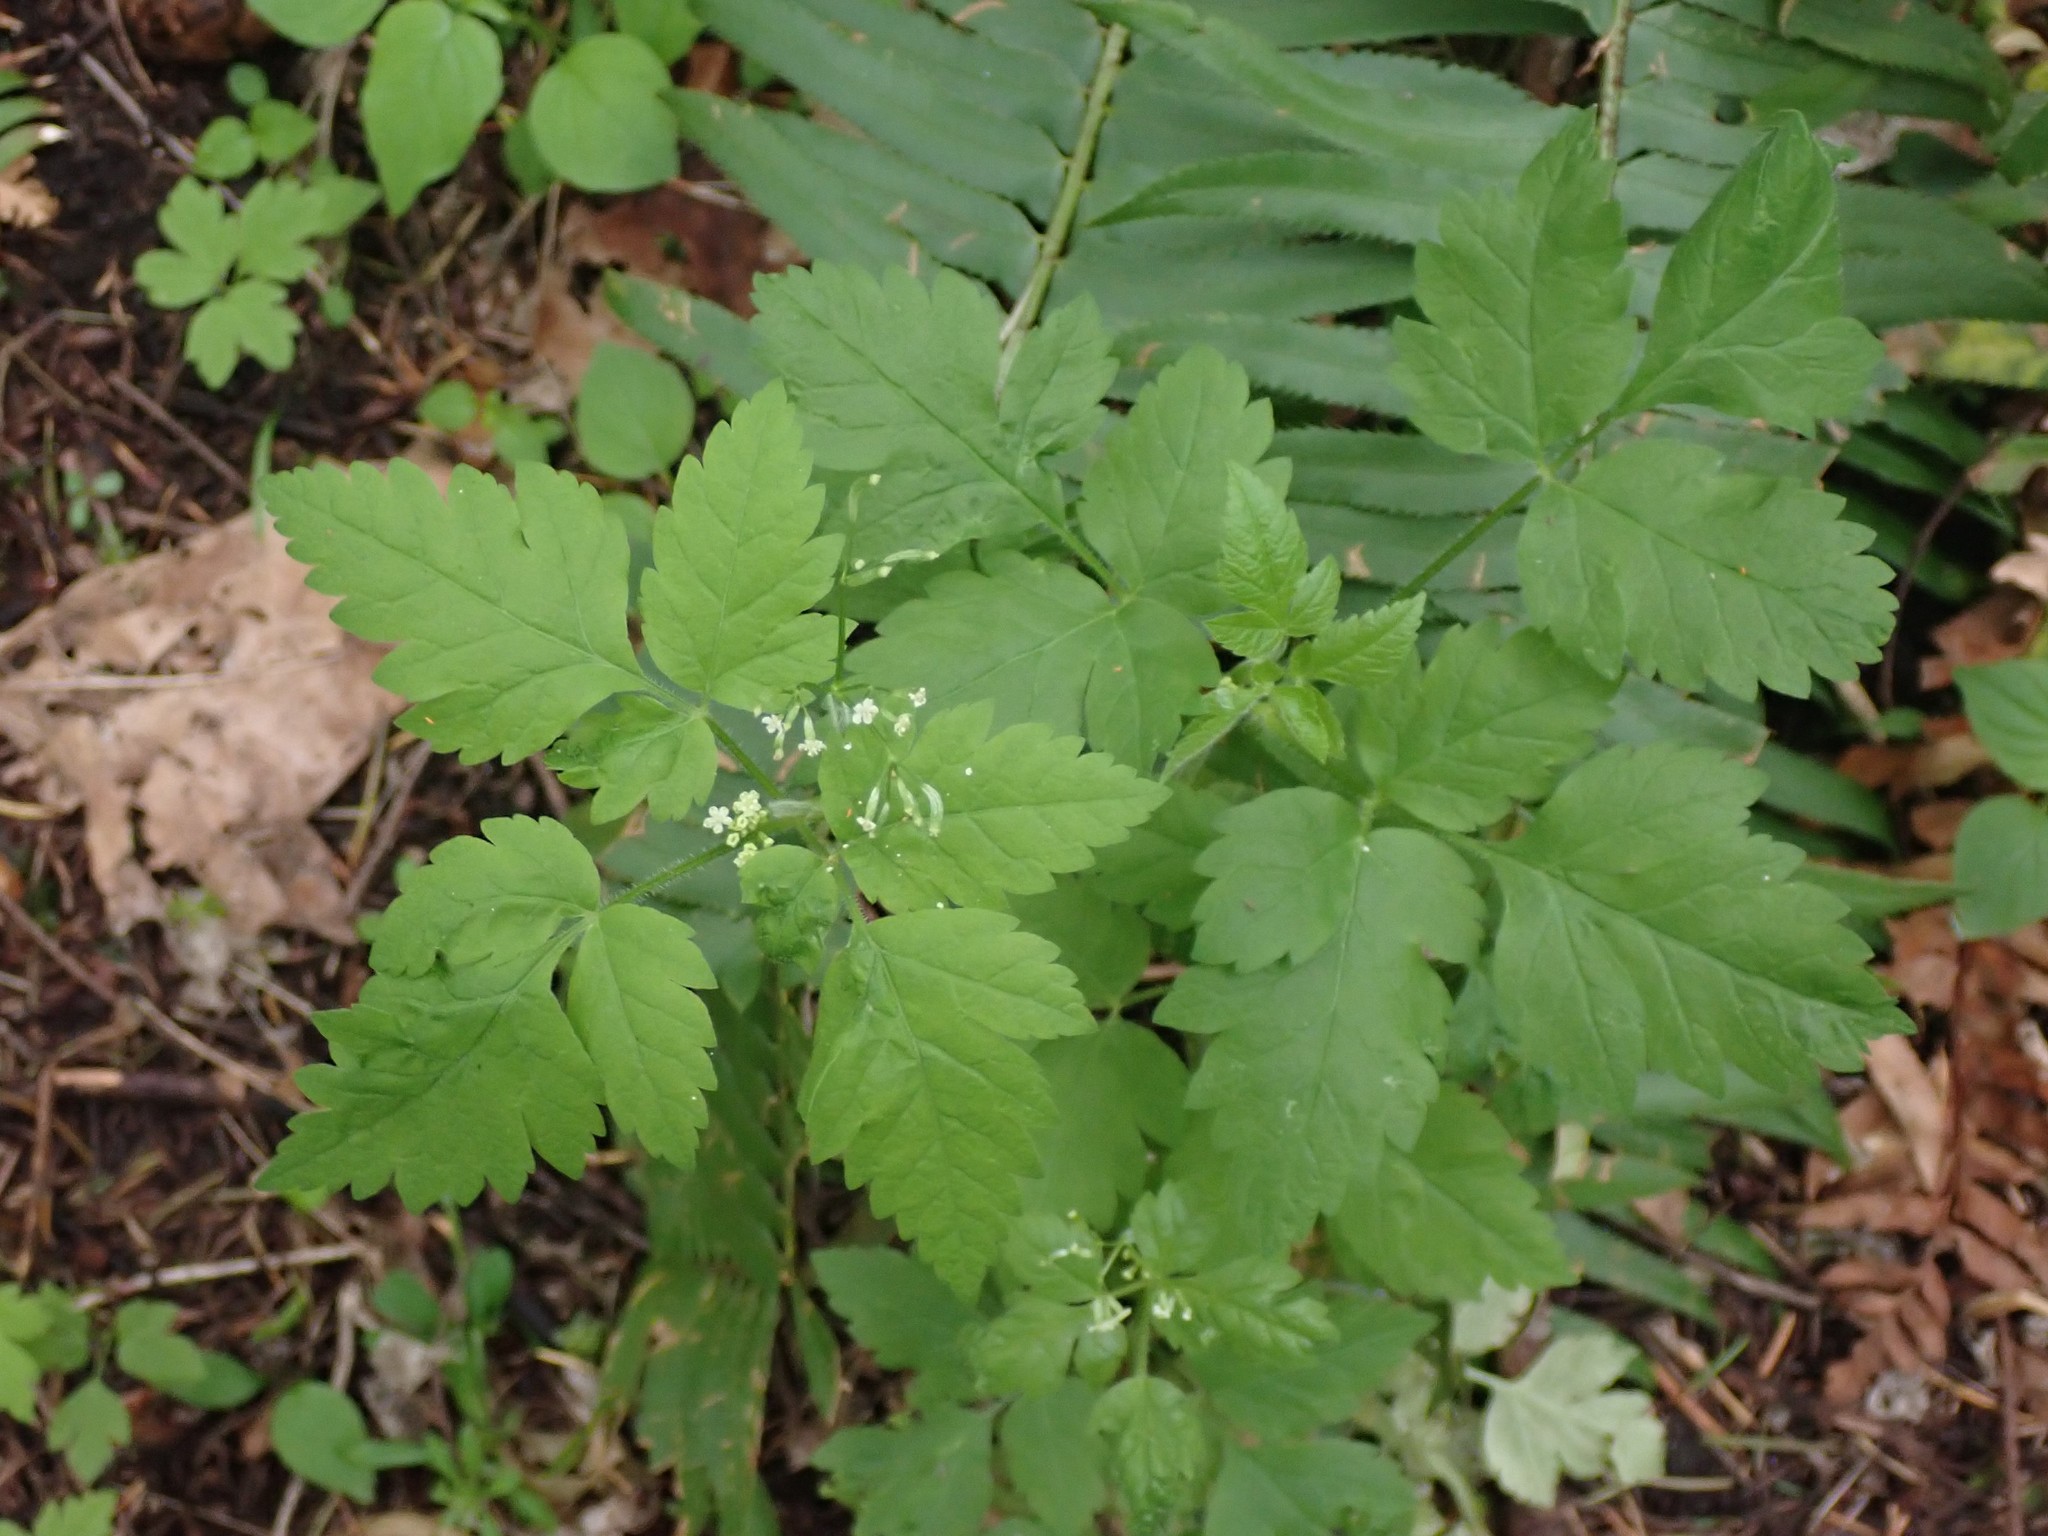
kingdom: Plantae
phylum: Tracheophyta
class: Magnoliopsida
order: Apiales
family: Apiaceae
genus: Osmorhiza
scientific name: Osmorhiza berteroi
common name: Mountain sweet cicely
